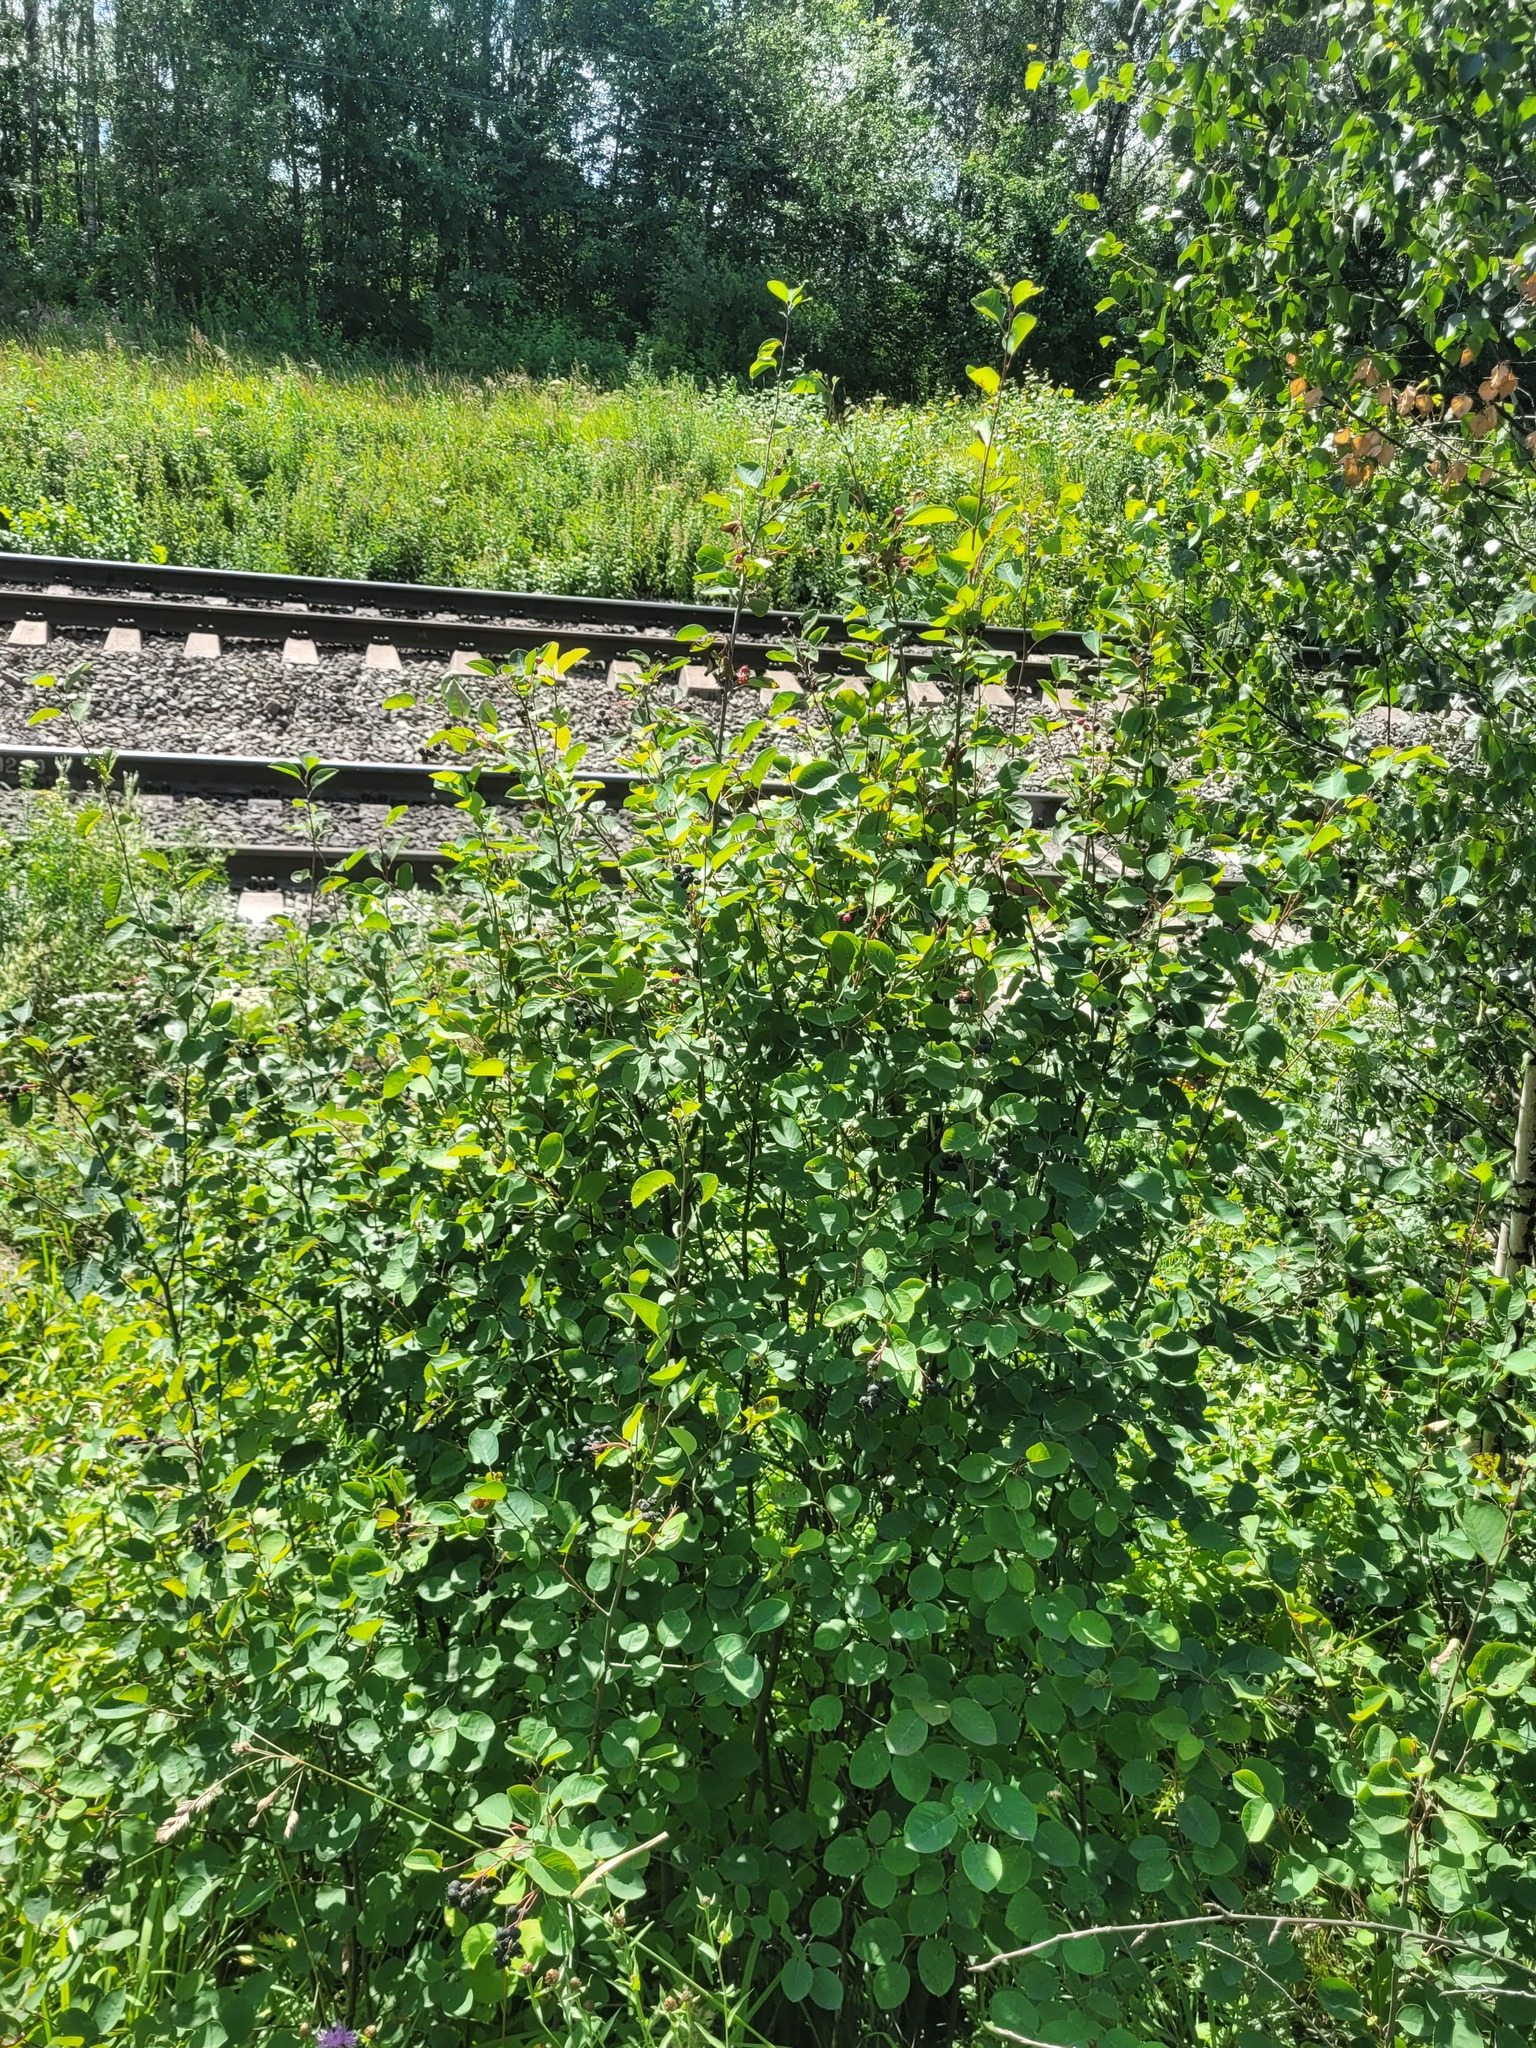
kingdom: Plantae
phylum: Tracheophyta
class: Magnoliopsida
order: Rosales
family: Rosaceae
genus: Amelanchier
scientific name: Amelanchier
